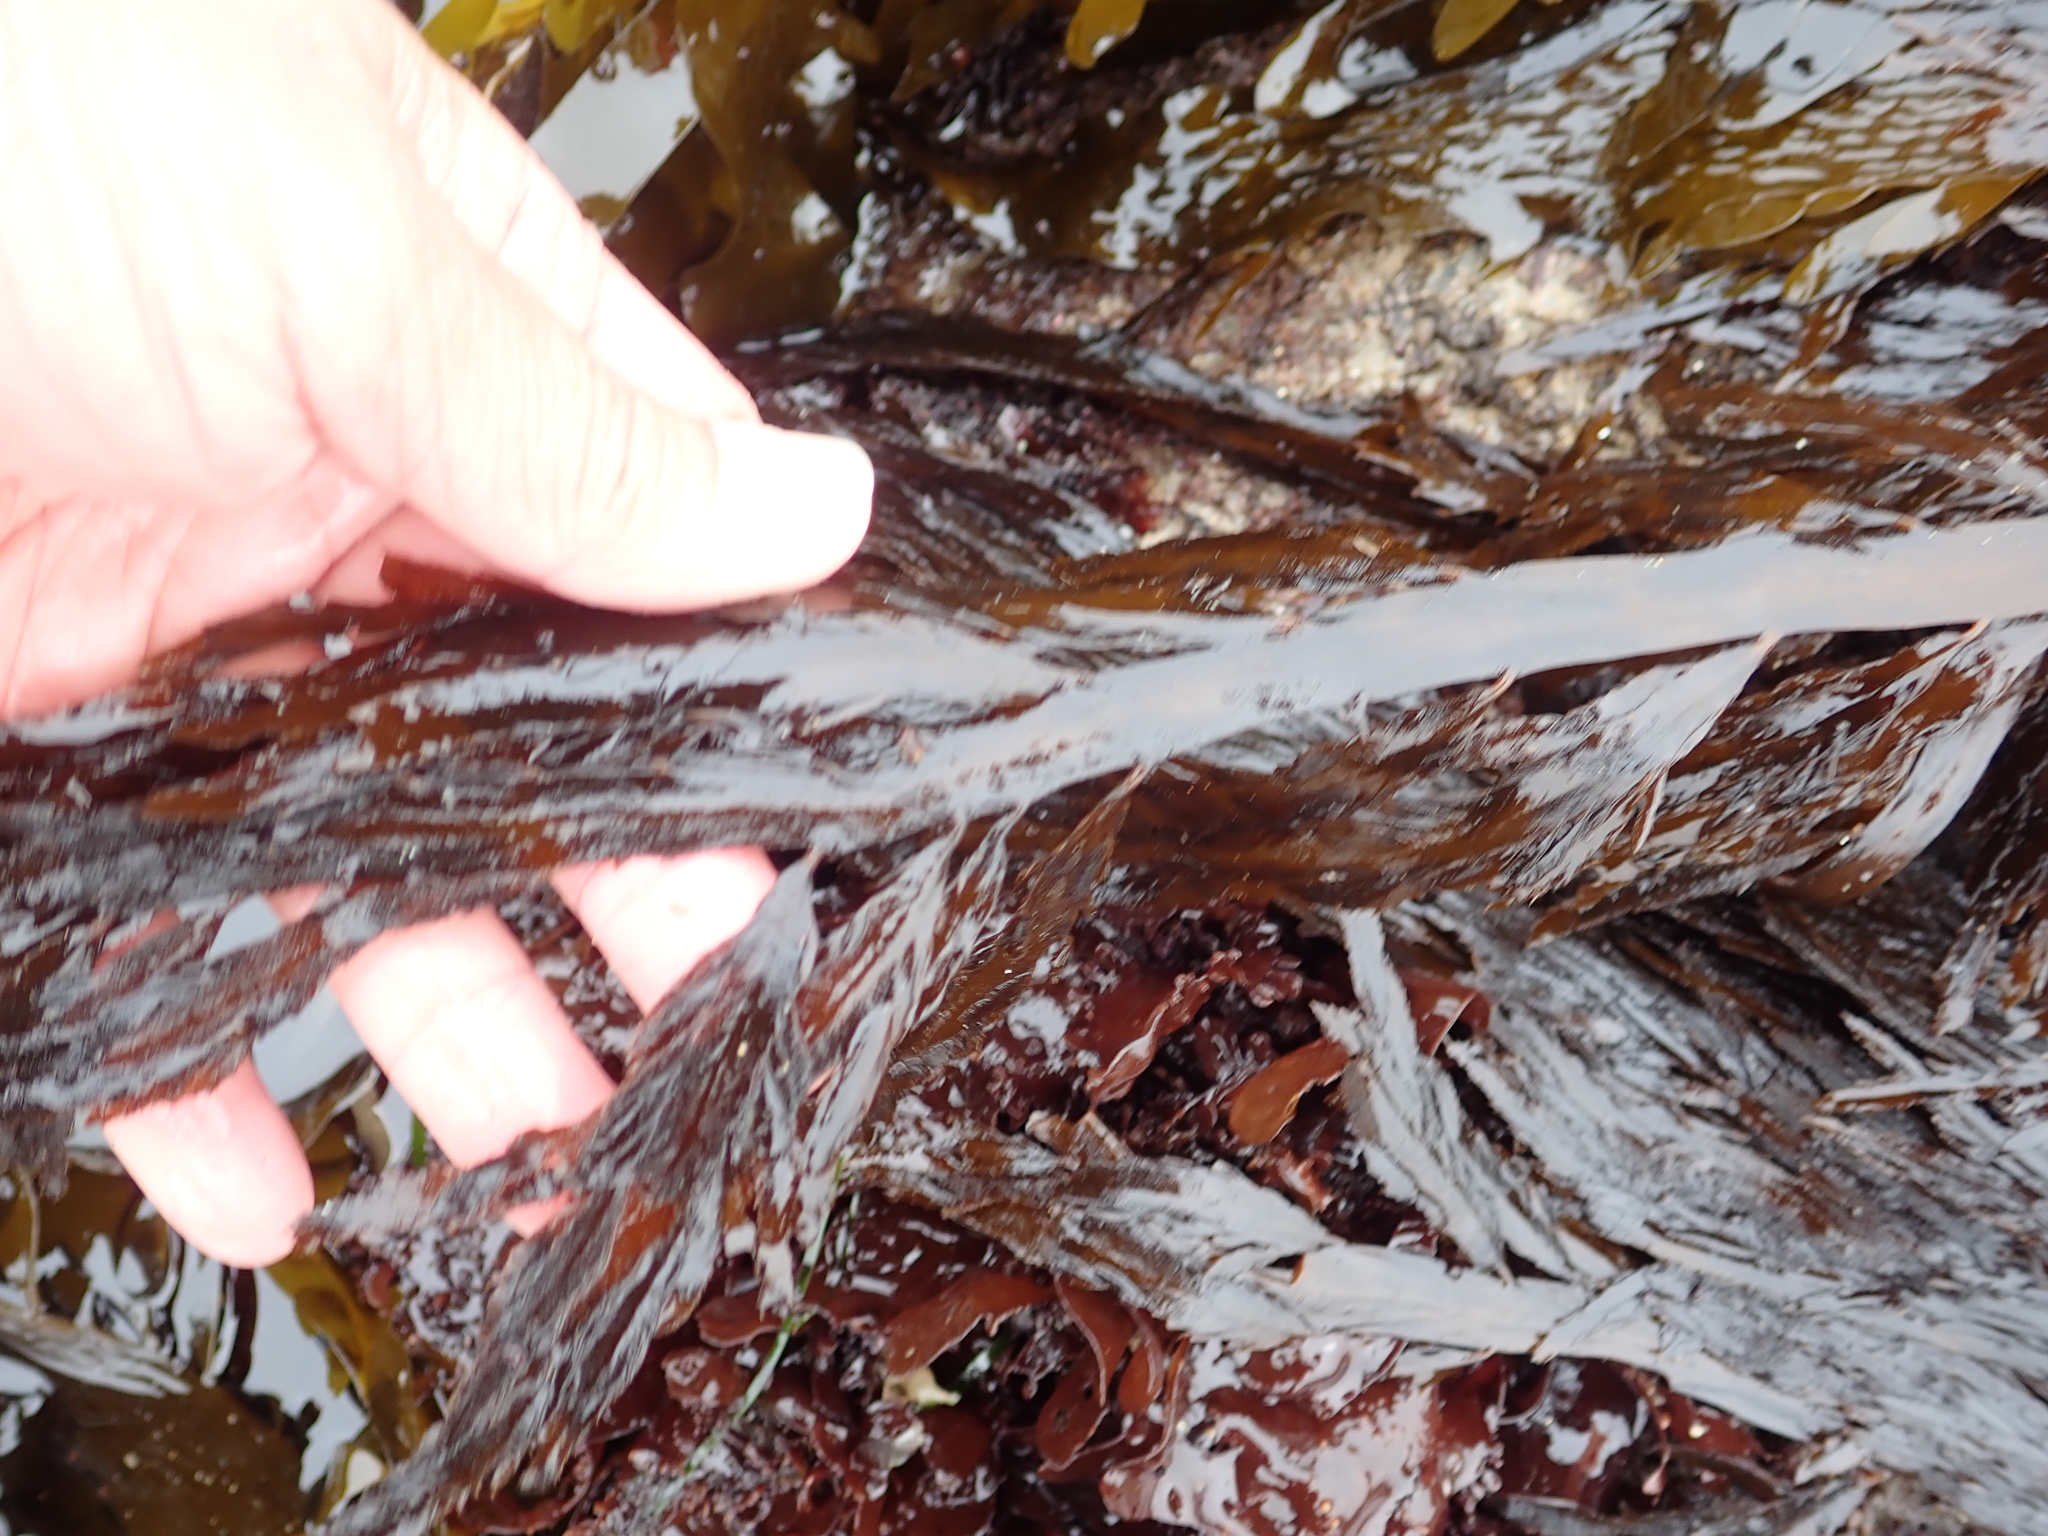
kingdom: Chromista
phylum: Ochrophyta
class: Phaeophyceae
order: Desmarestiales
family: Desmarestiaceae
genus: Desmarestia
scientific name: Desmarestia ligulata
